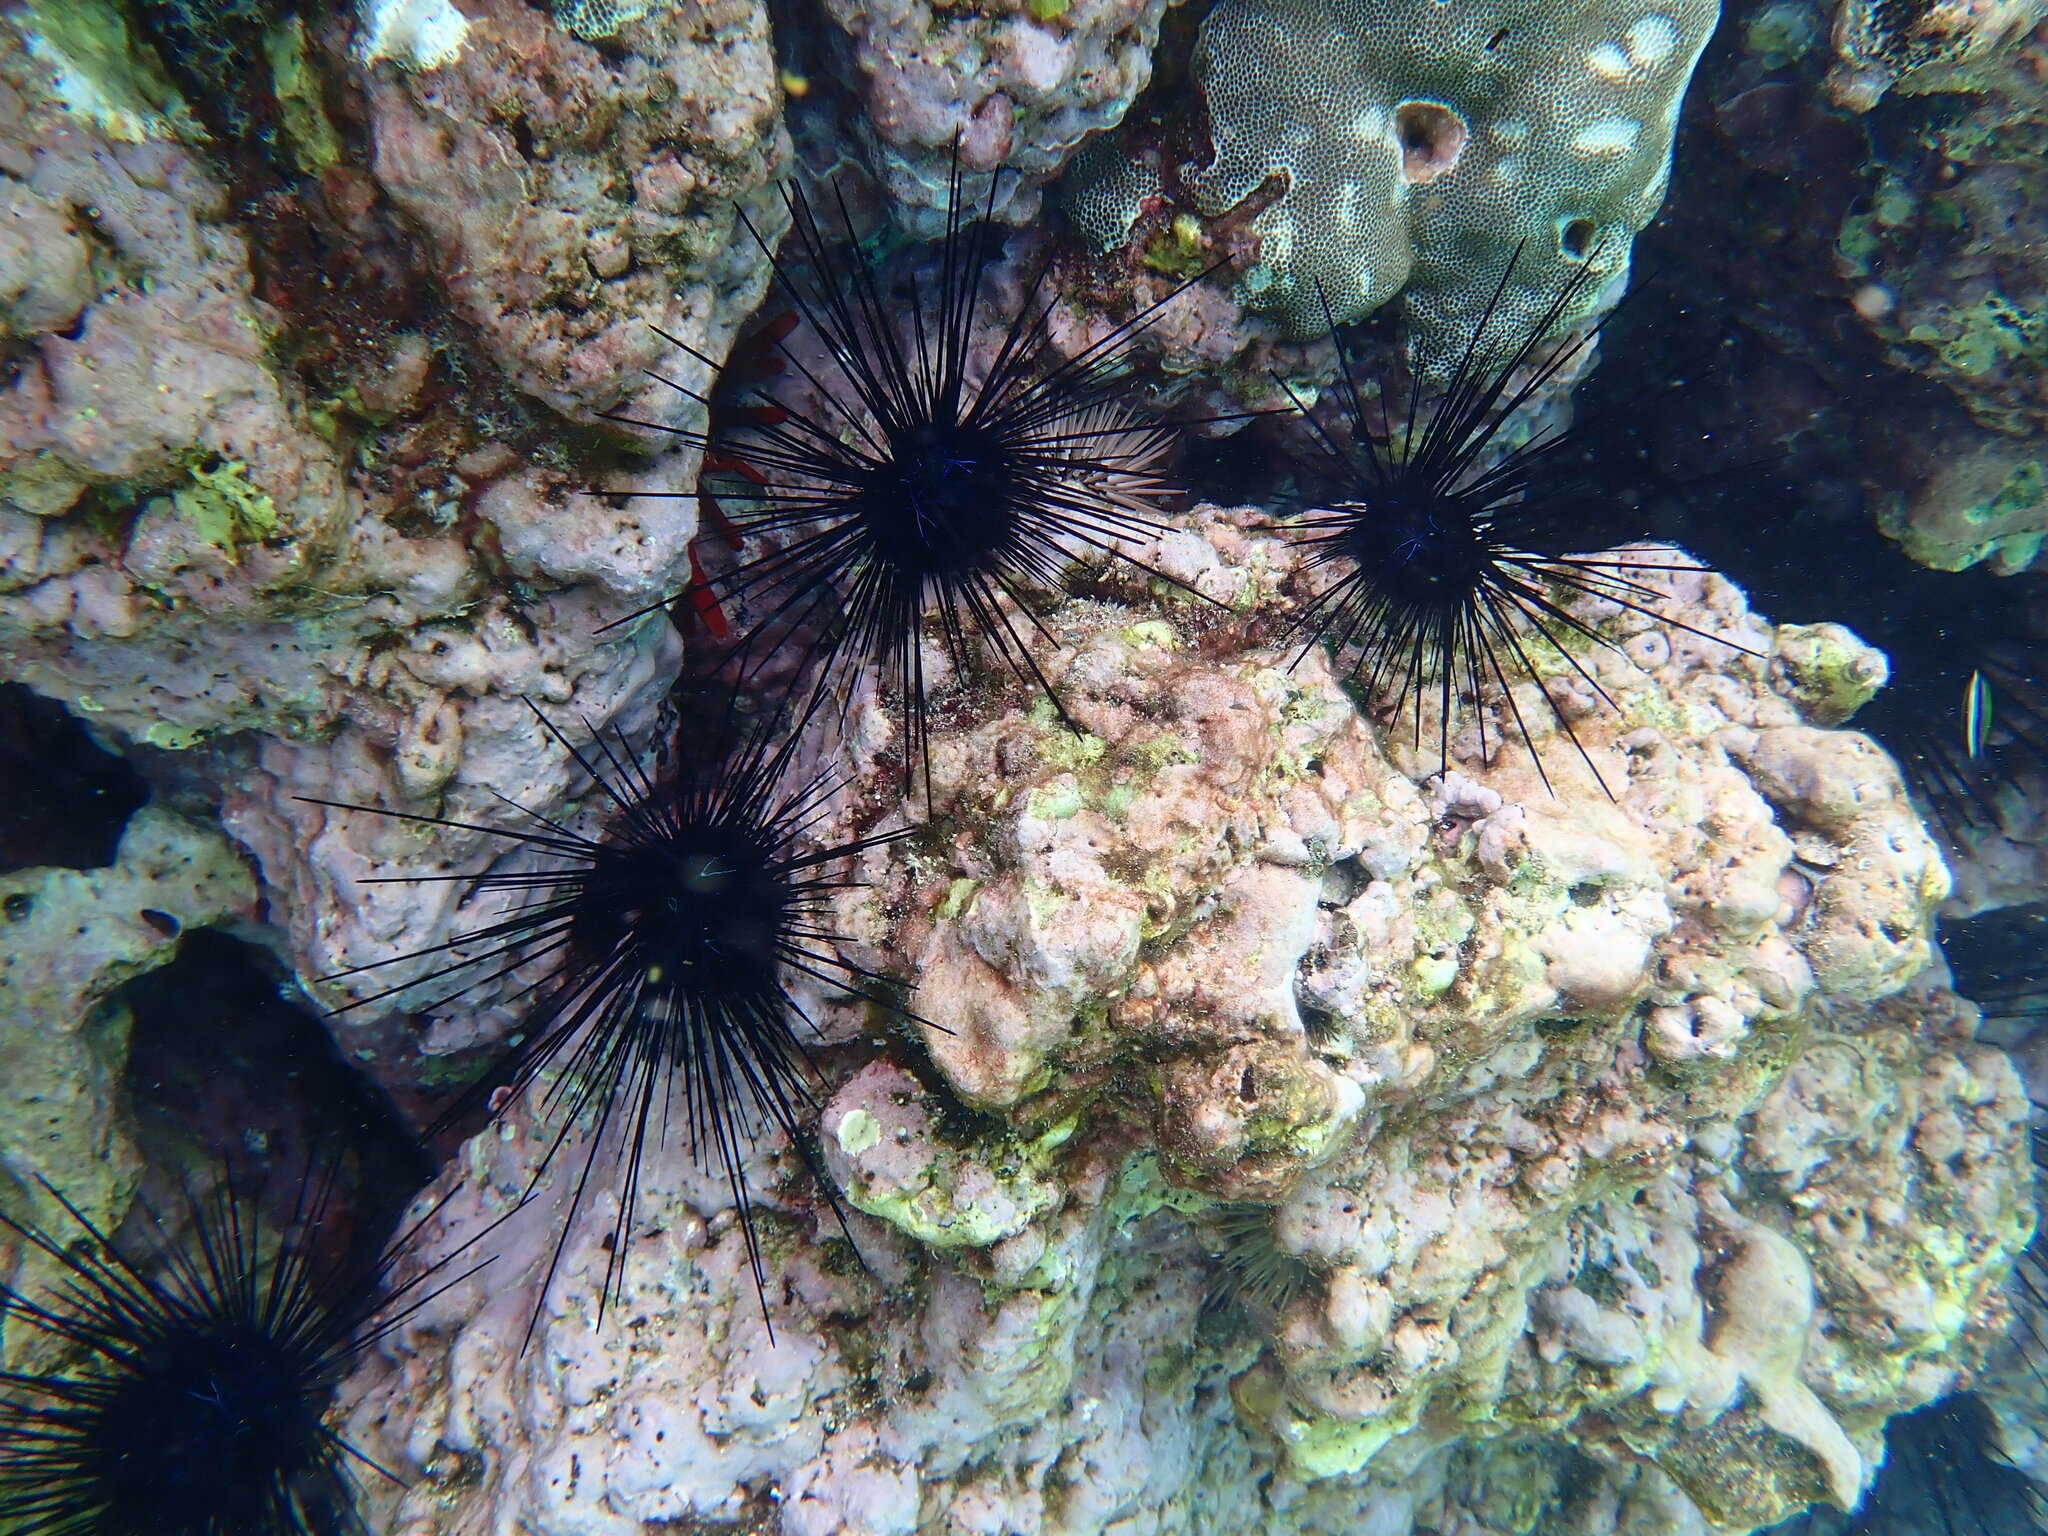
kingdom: Animalia
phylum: Echinodermata
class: Echinoidea
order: Diadematoida
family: Diadematidae
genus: Diadema
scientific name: Diadema savignyi
